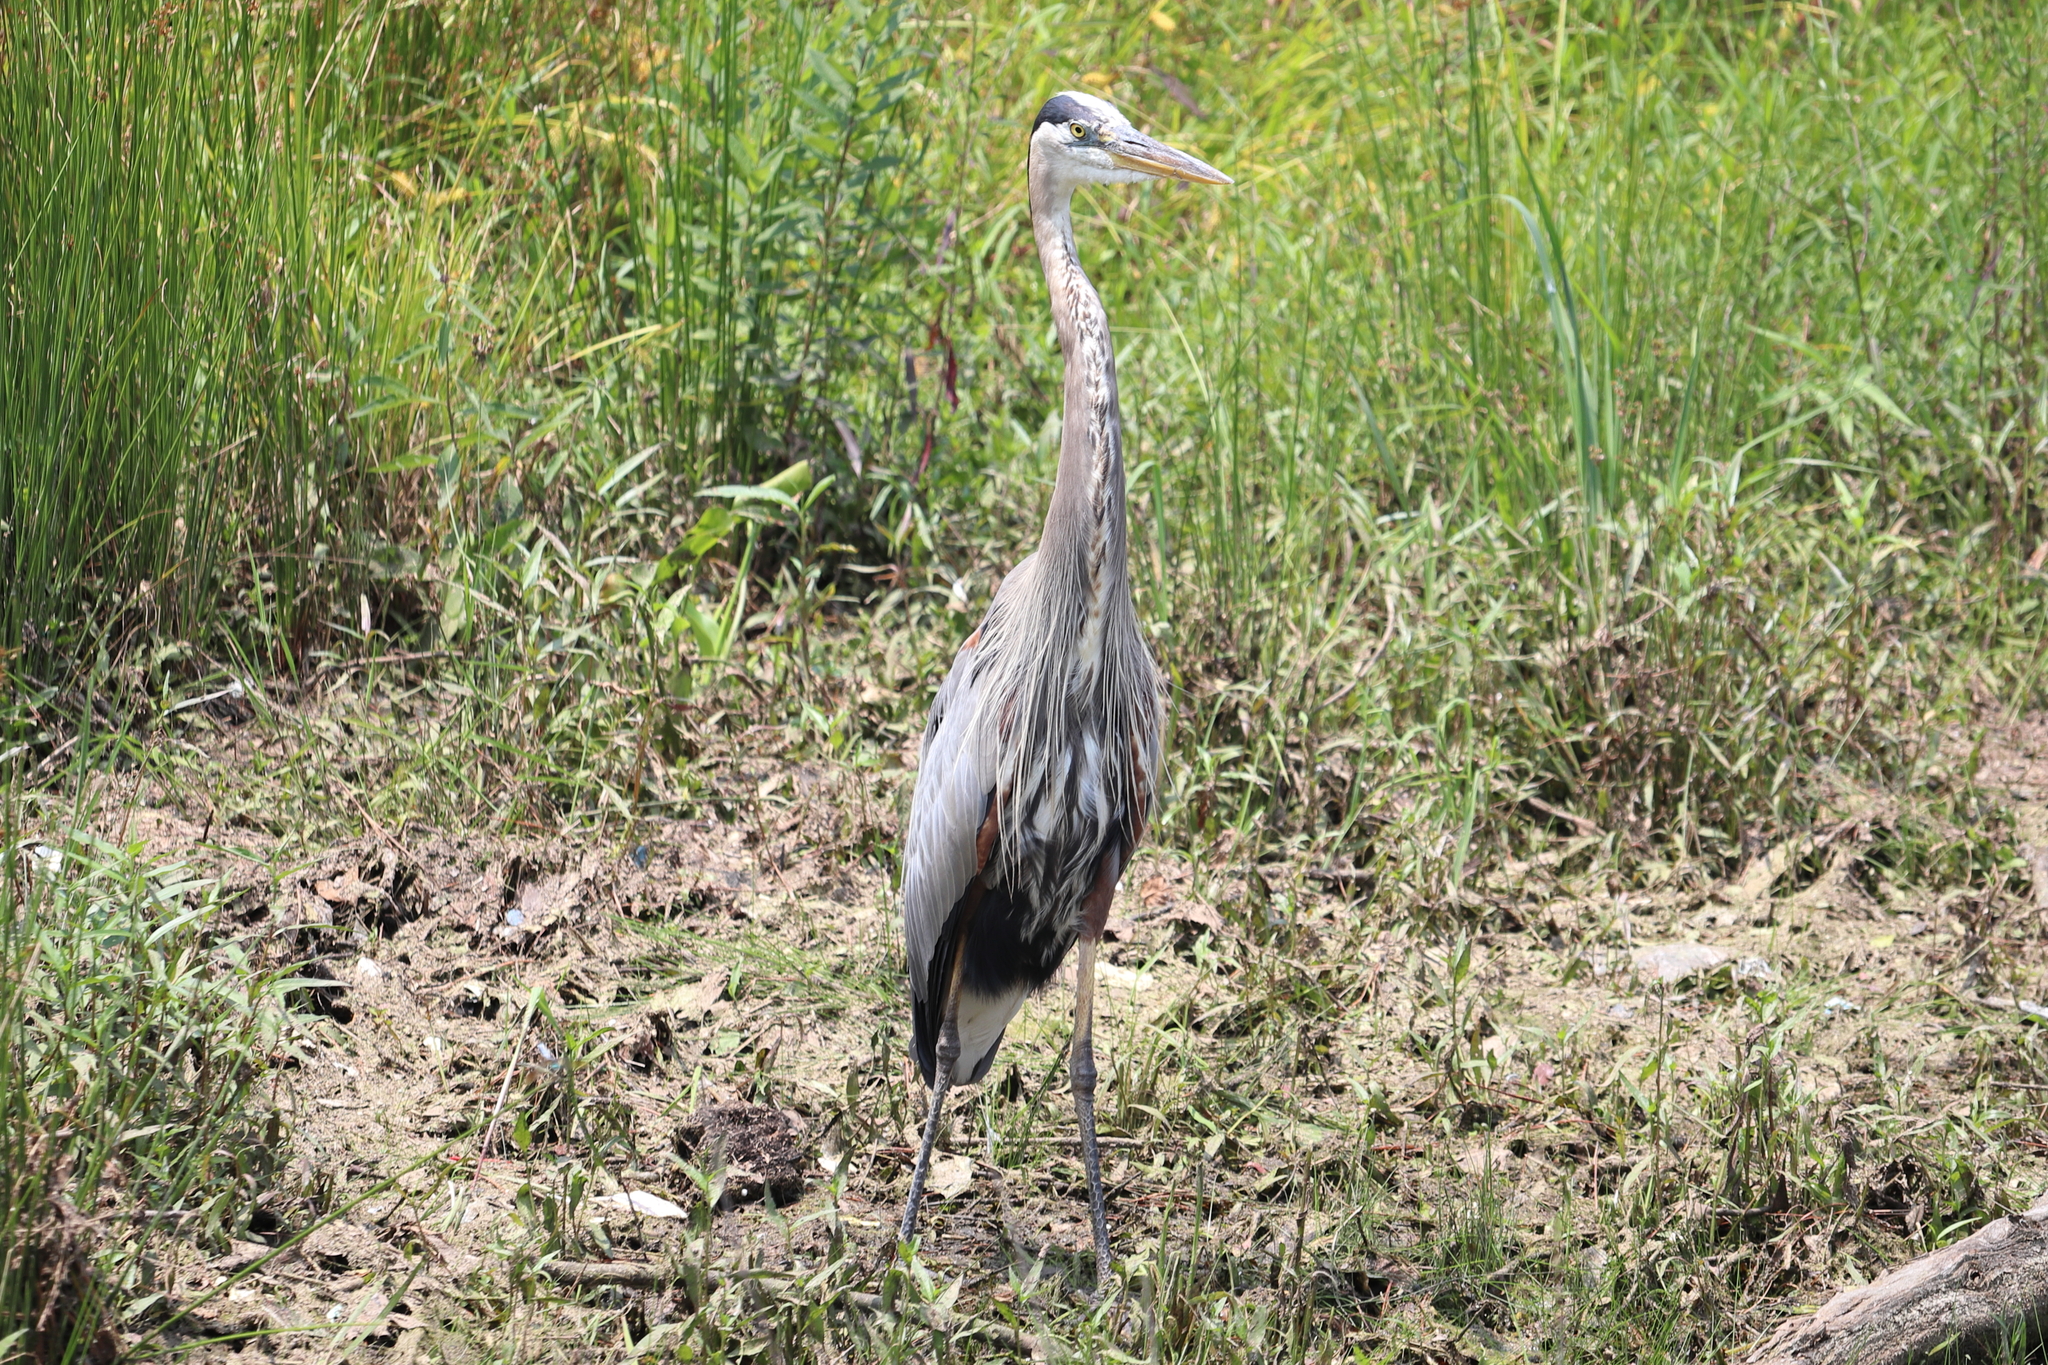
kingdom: Animalia
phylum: Chordata
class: Aves
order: Pelecaniformes
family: Ardeidae
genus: Ardea
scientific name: Ardea herodias
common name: Great blue heron
